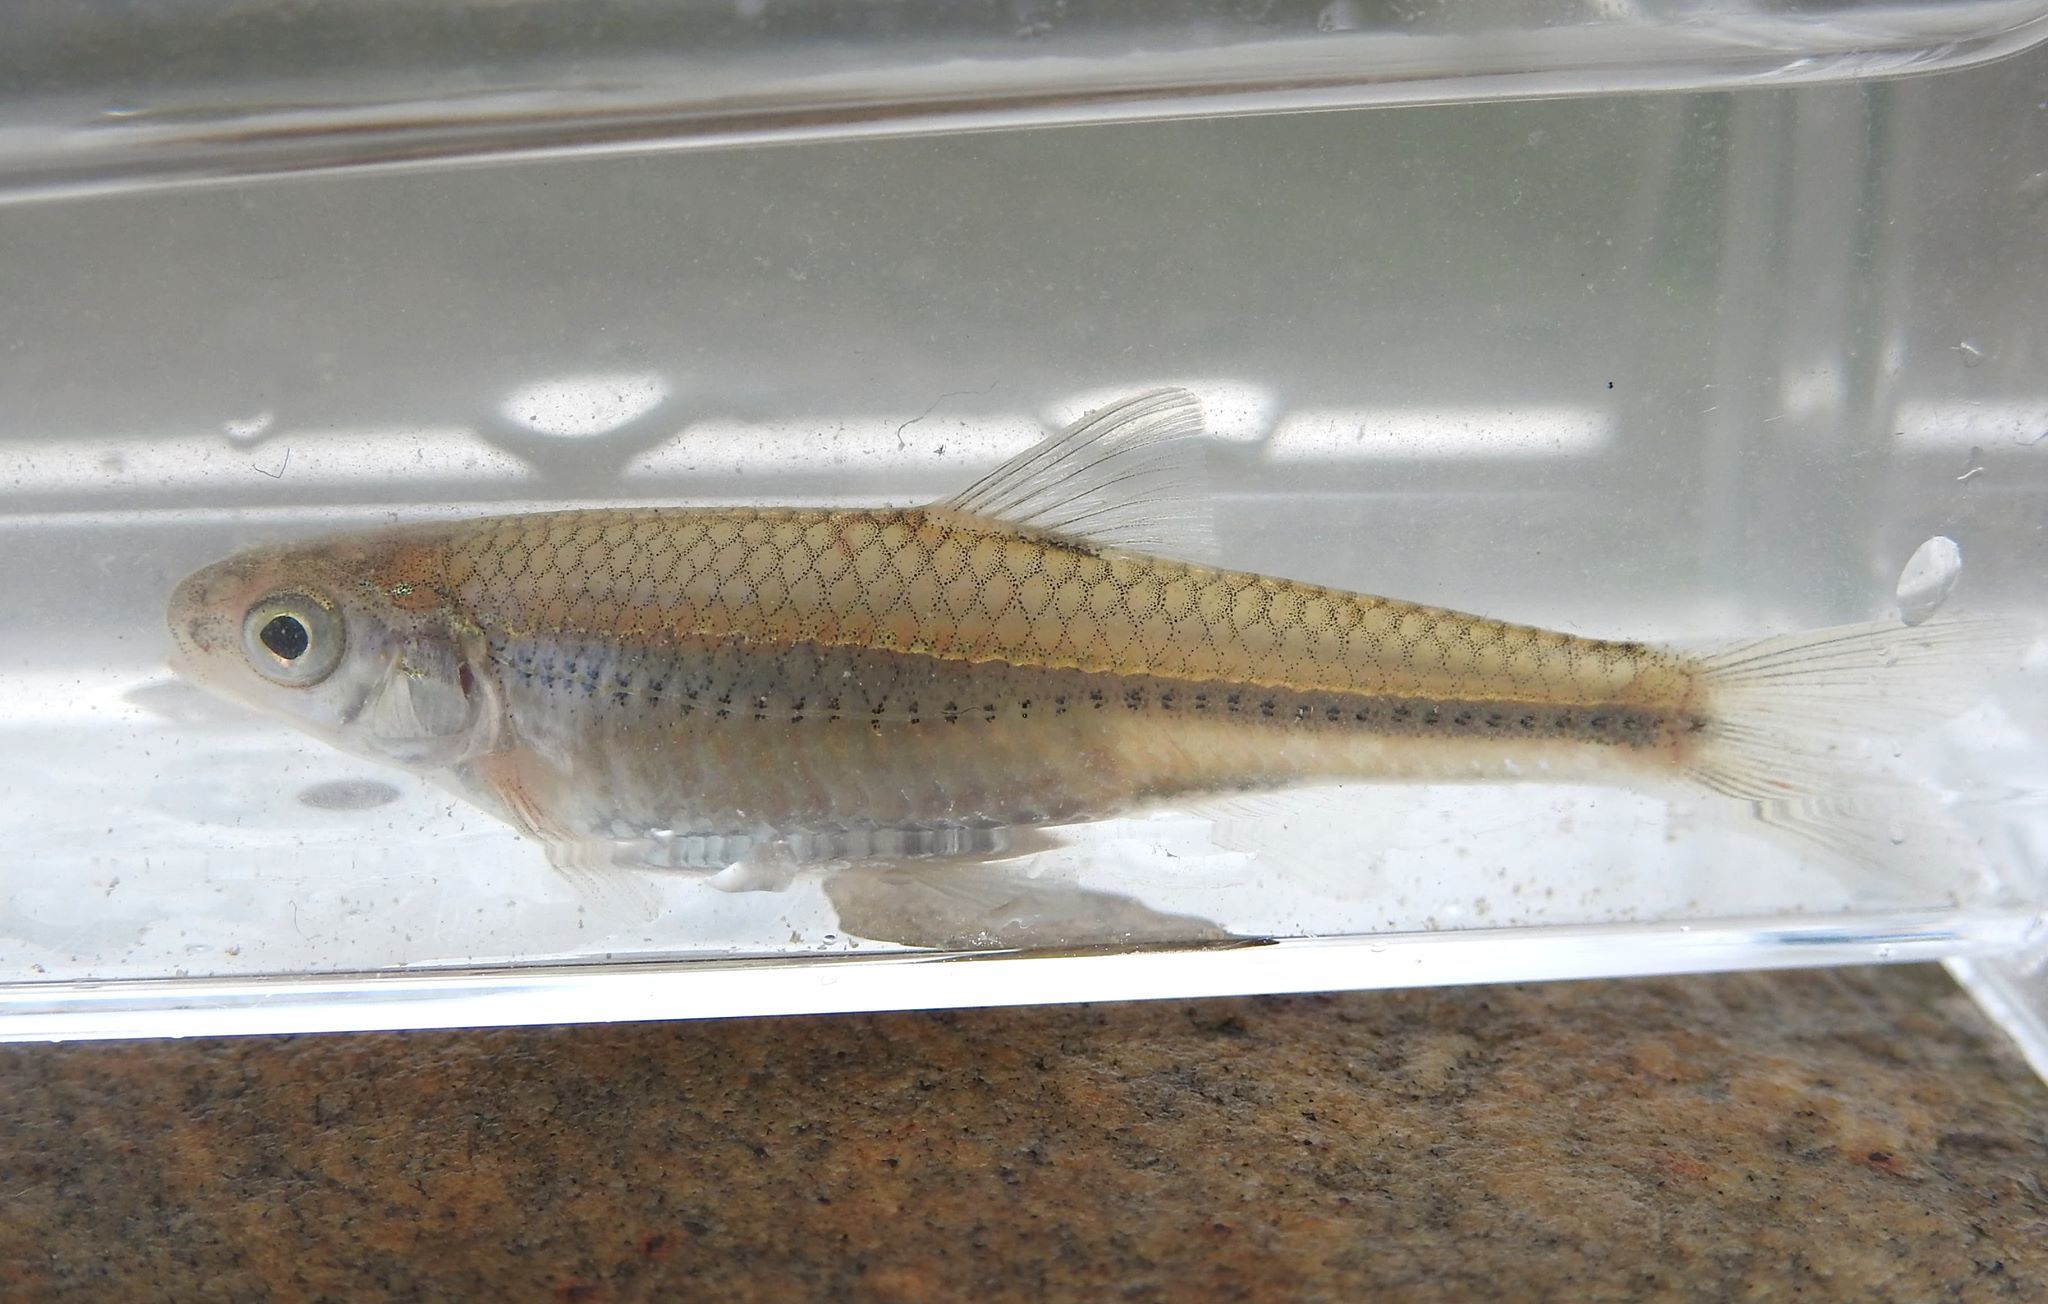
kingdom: Animalia
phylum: Chordata
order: Cypriniformes
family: Cyprinidae
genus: Notropis
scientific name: Notropis
